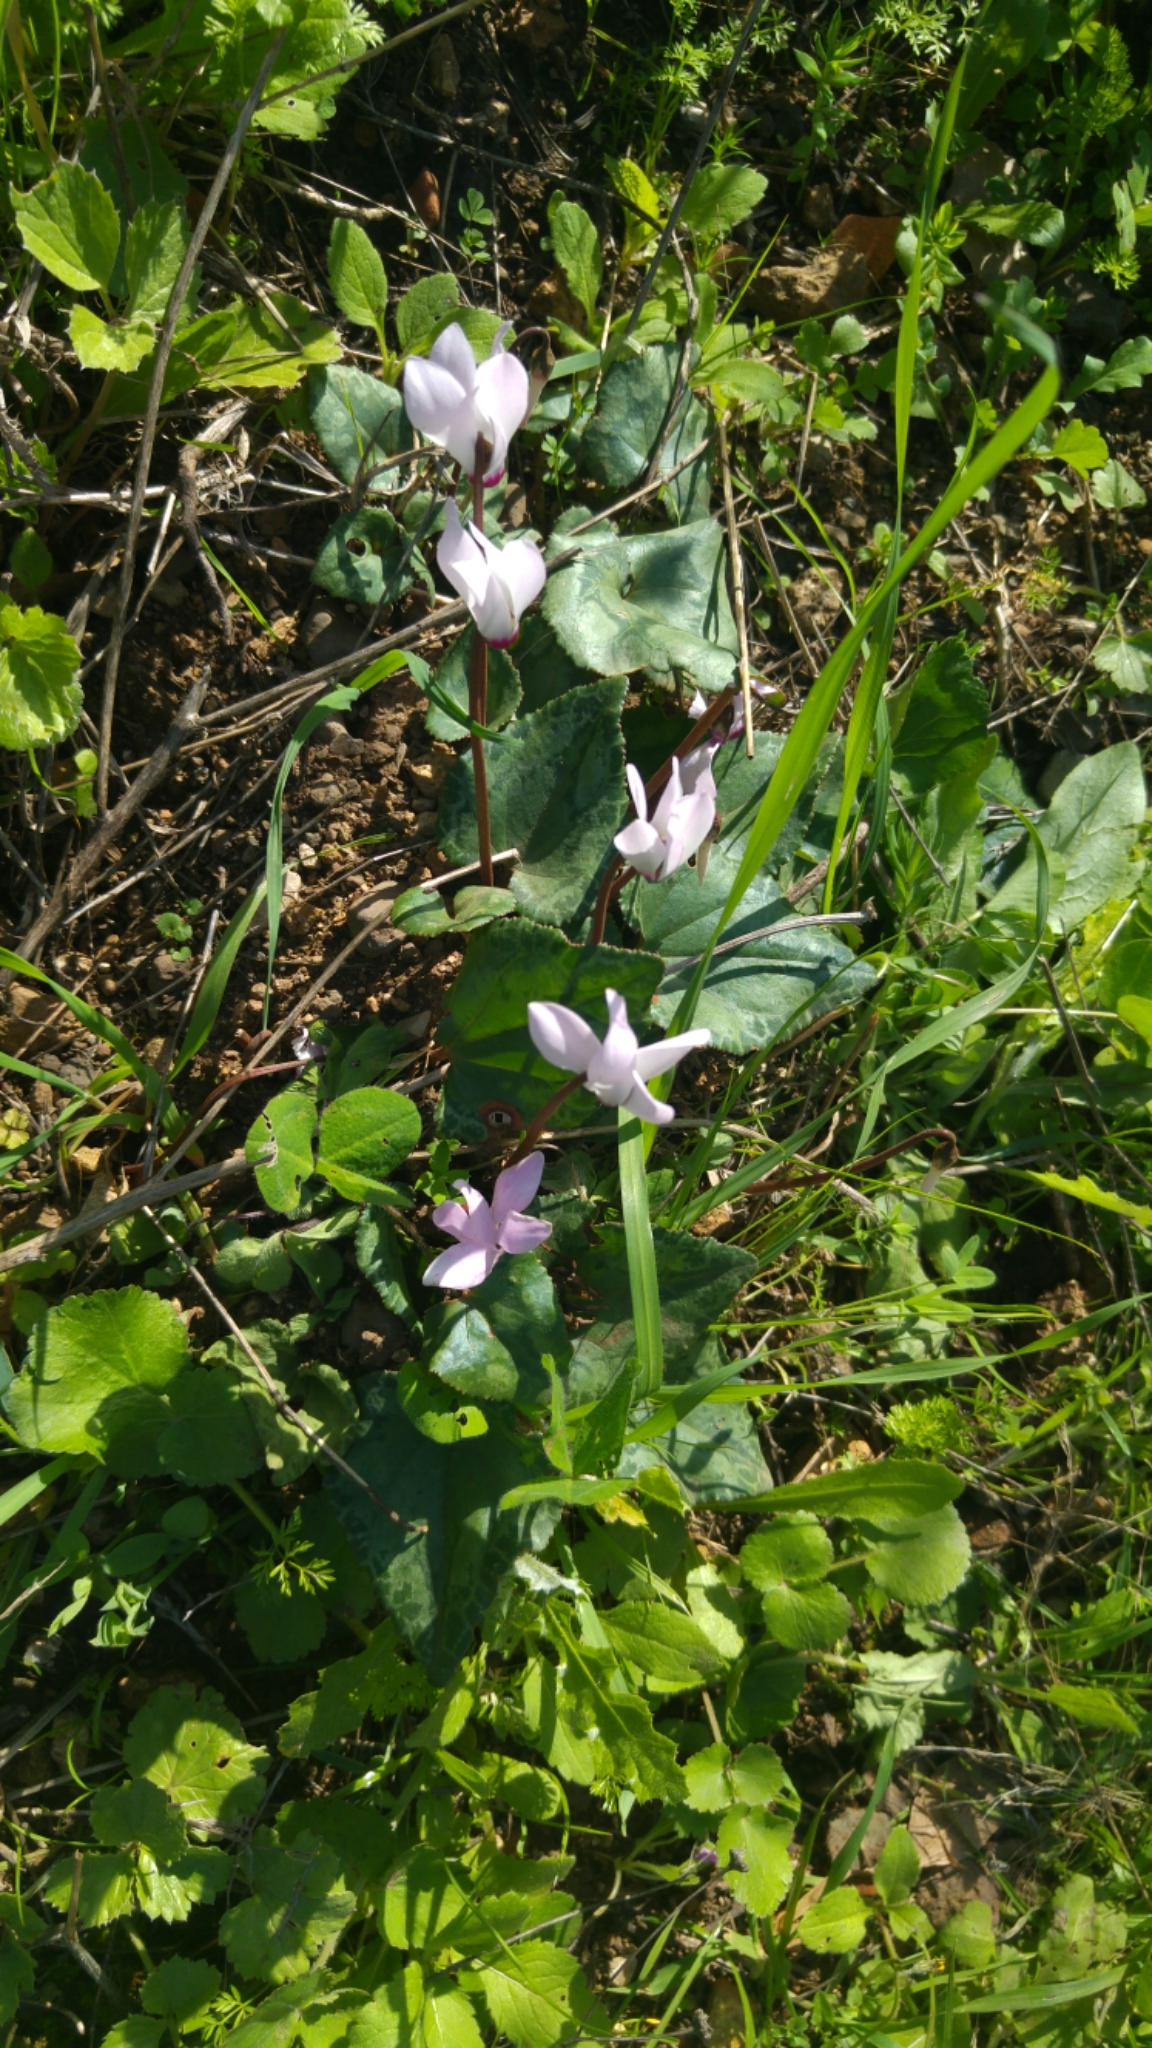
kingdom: Plantae
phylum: Tracheophyta
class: Magnoliopsida
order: Ericales
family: Primulaceae
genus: Cyclamen
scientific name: Cyclamen persicum
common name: Florist's cyclamen
